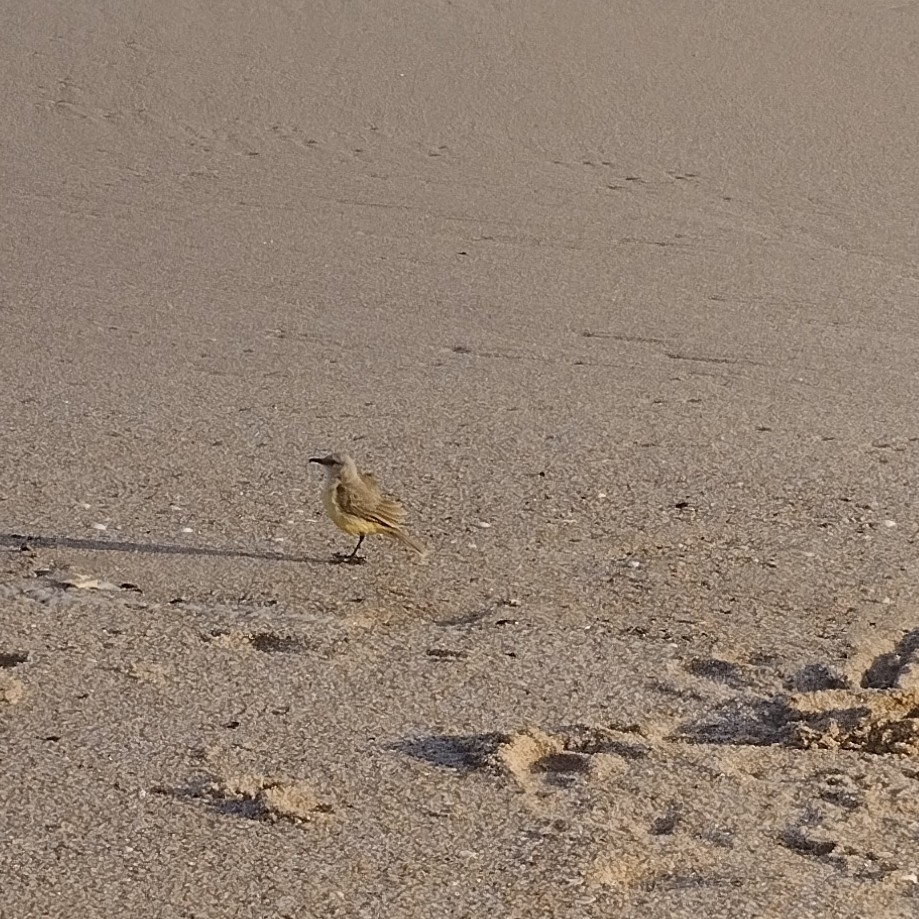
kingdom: Animalia
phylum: Chordata
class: Aves
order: Passeriformes
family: Tyrannidae
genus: Machetornis
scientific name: Machetornis rixosa
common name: Cattle tyrant
